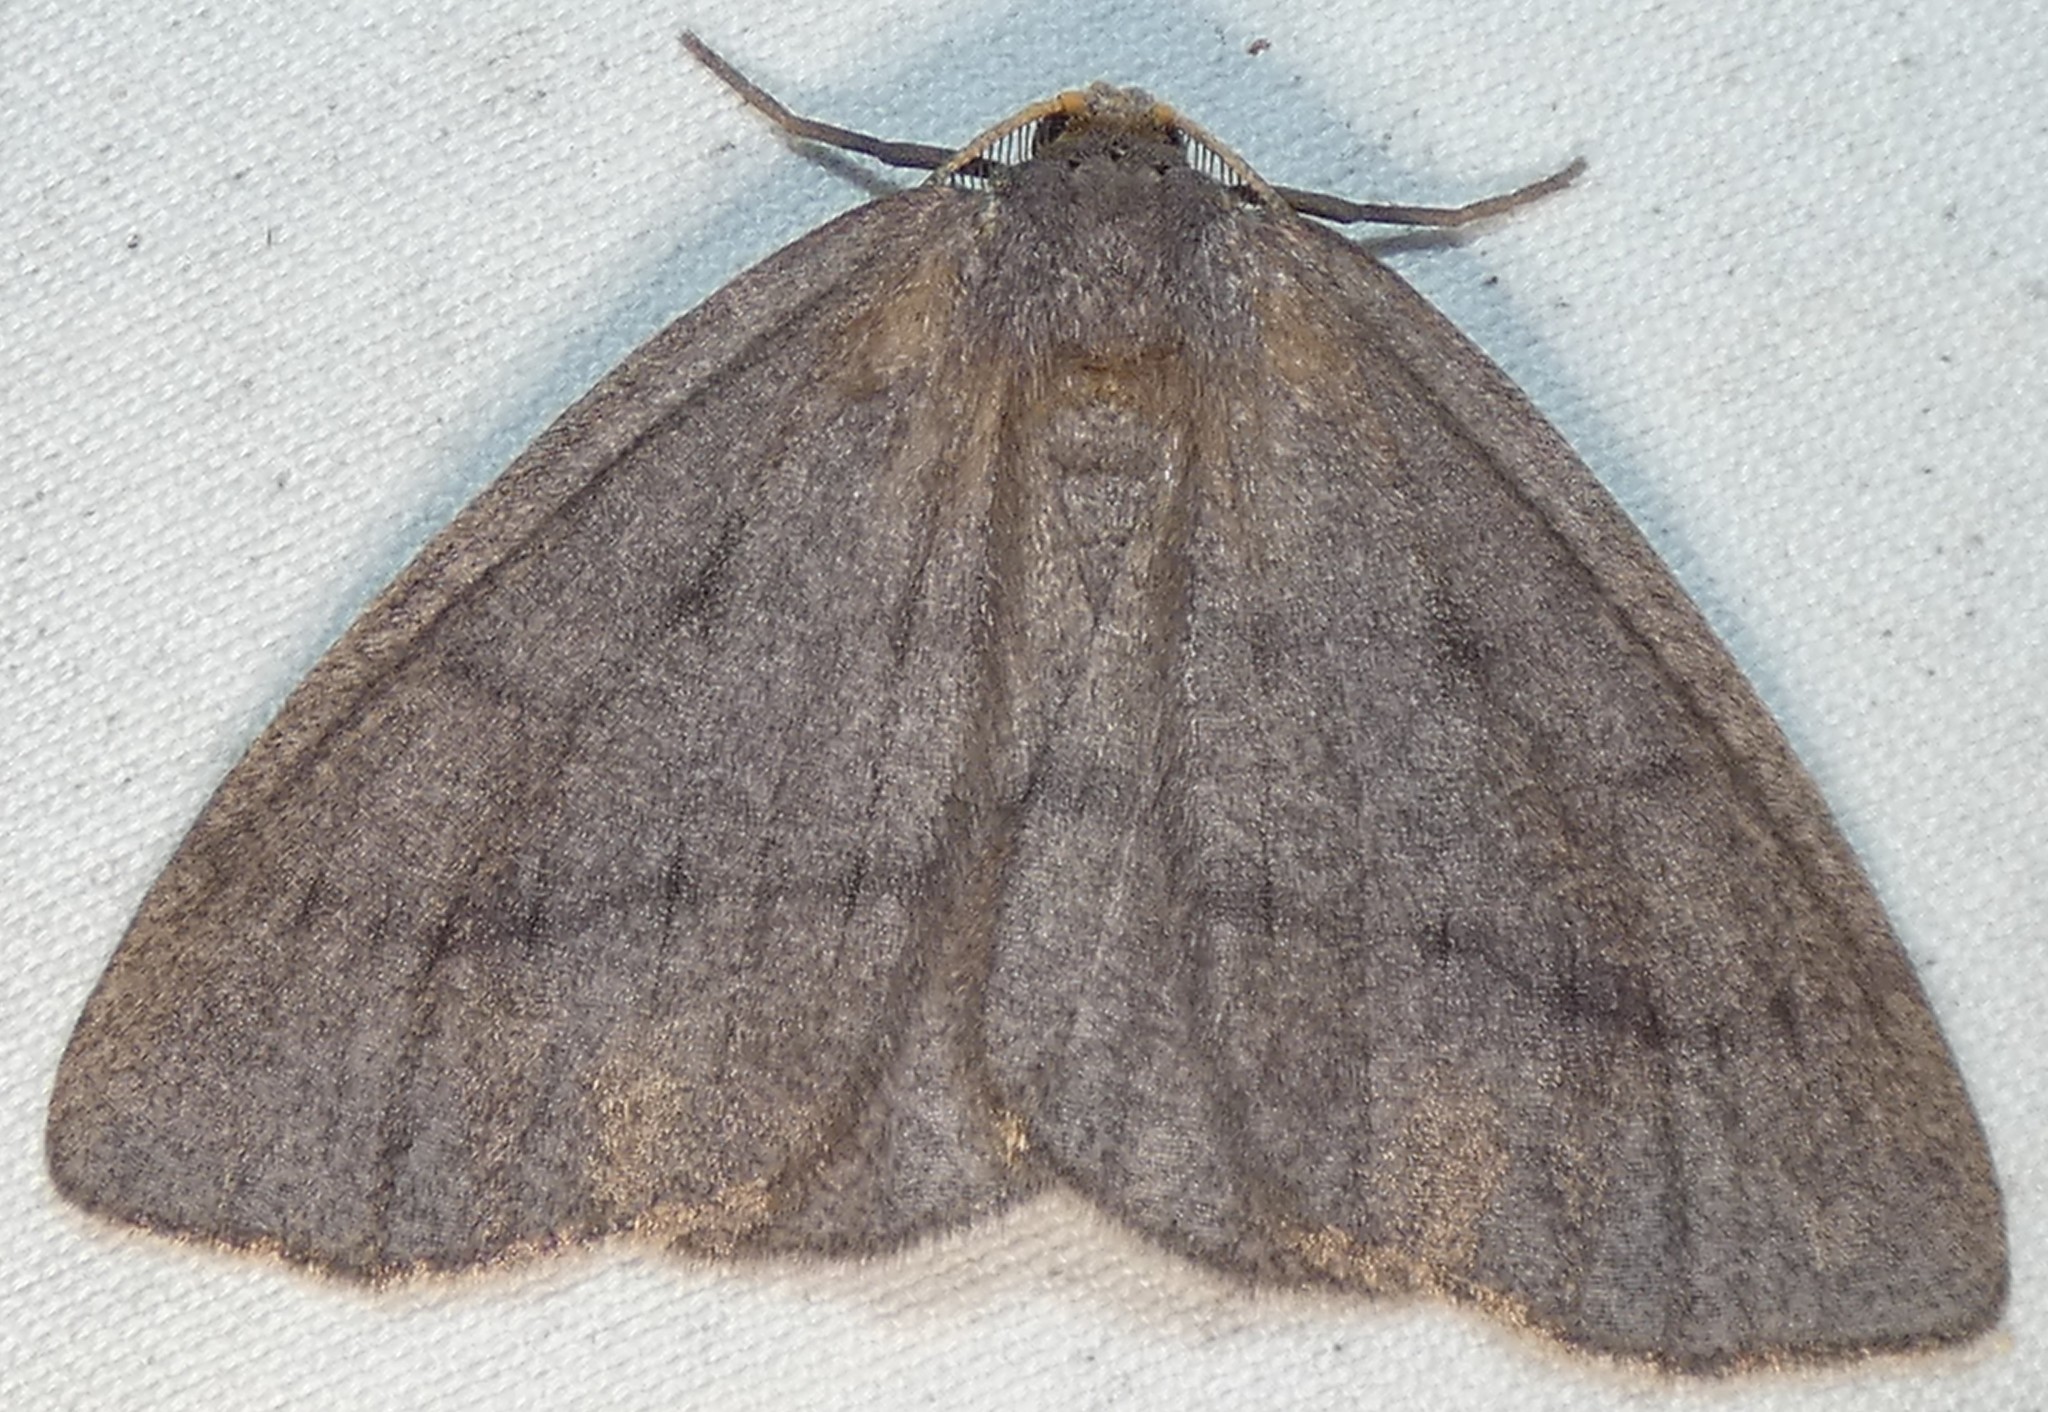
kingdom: Animalia
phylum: Arthropoda
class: Insecta
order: Lepidoptera
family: Geometridae
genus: Lambdina
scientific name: Lambdina pellucidaria
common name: Eastern pinelooper
